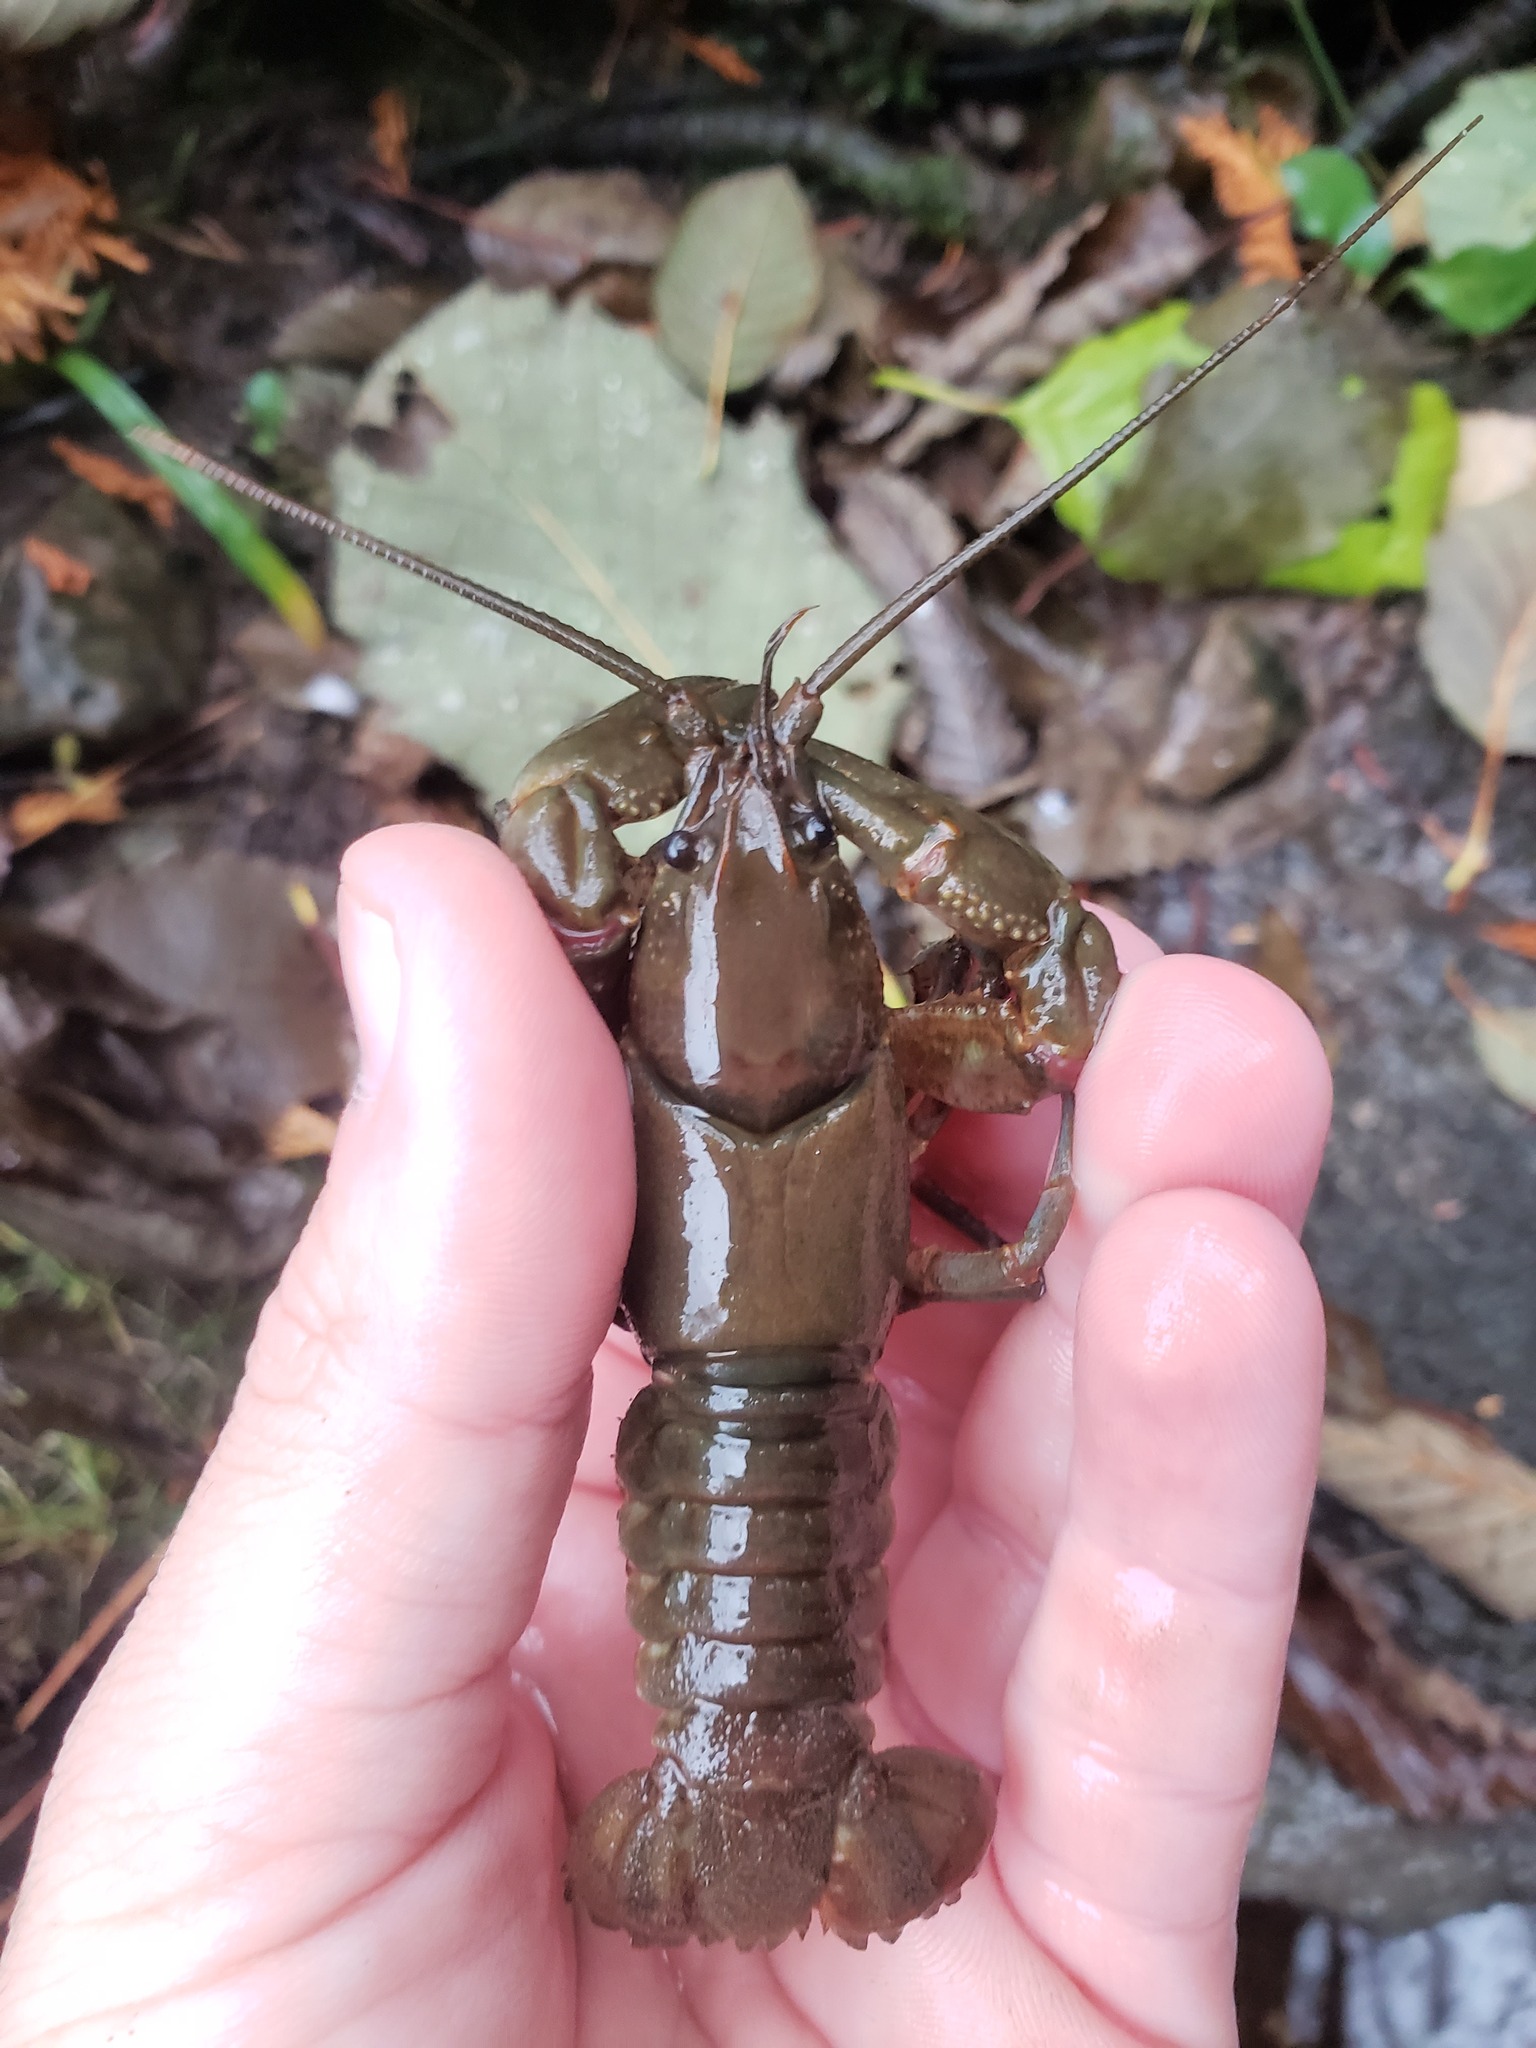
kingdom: Animalia
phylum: Arthropoda
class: Malacostraca
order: Decapoda
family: Cambaridae
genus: Cambarus
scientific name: Cambarus robustus
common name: Big water crayfish
